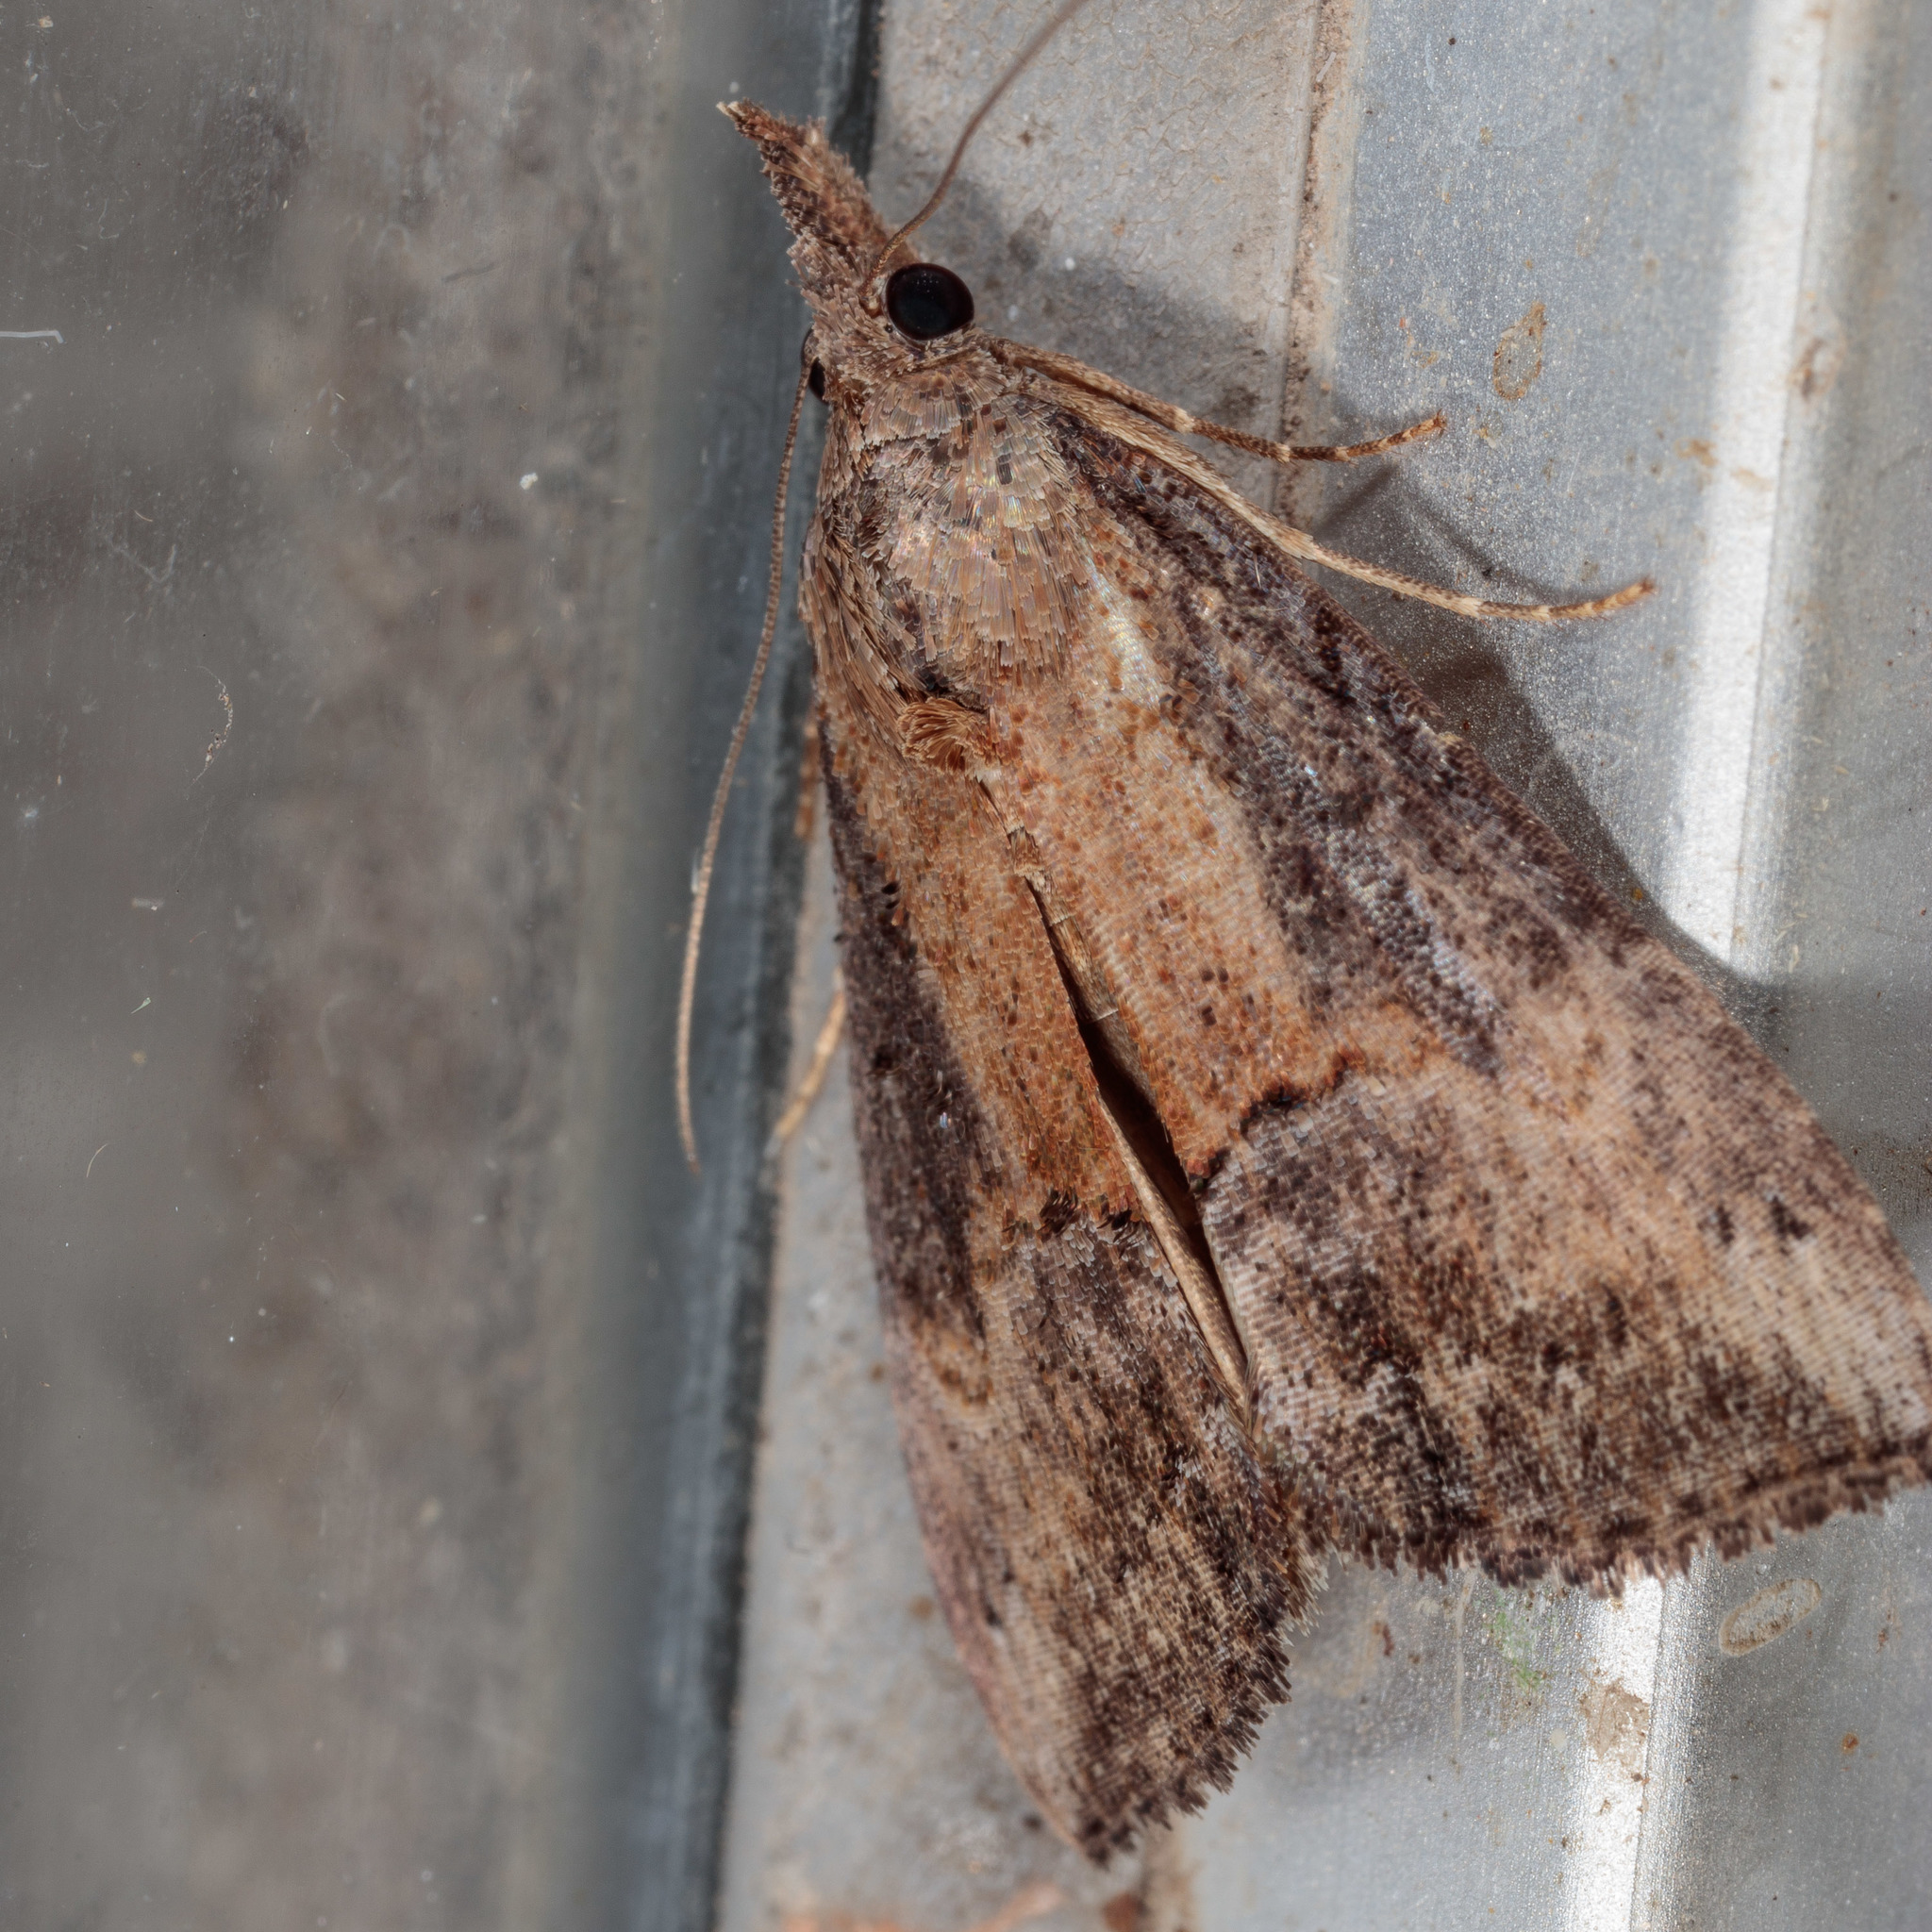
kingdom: Animalia
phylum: Arthropoda
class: Insecta
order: Lepidoptera
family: Erebidae
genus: Hypena
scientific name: Hypena scabra
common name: Green cloverworm
